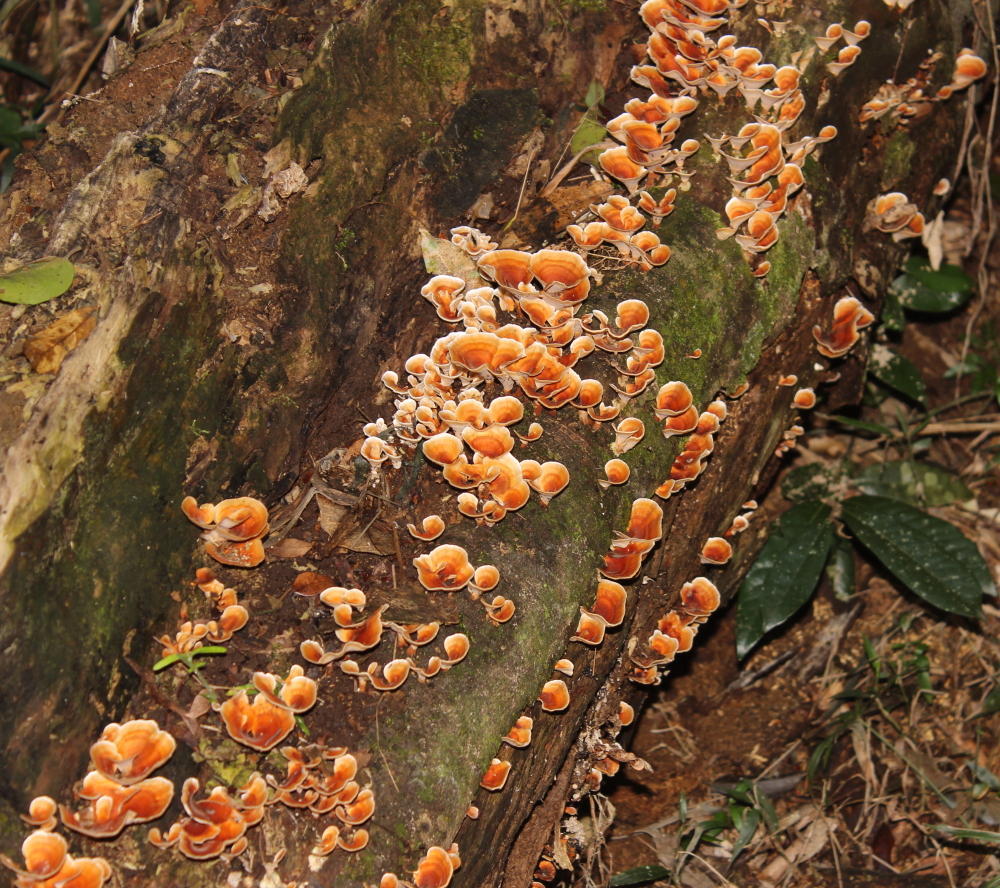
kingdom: Fungi
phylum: Basidiomycota
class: Agaricomycetes
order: Russulales
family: Stereaceae
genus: Stereum
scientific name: Stereum ostrea
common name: False turkeytail
